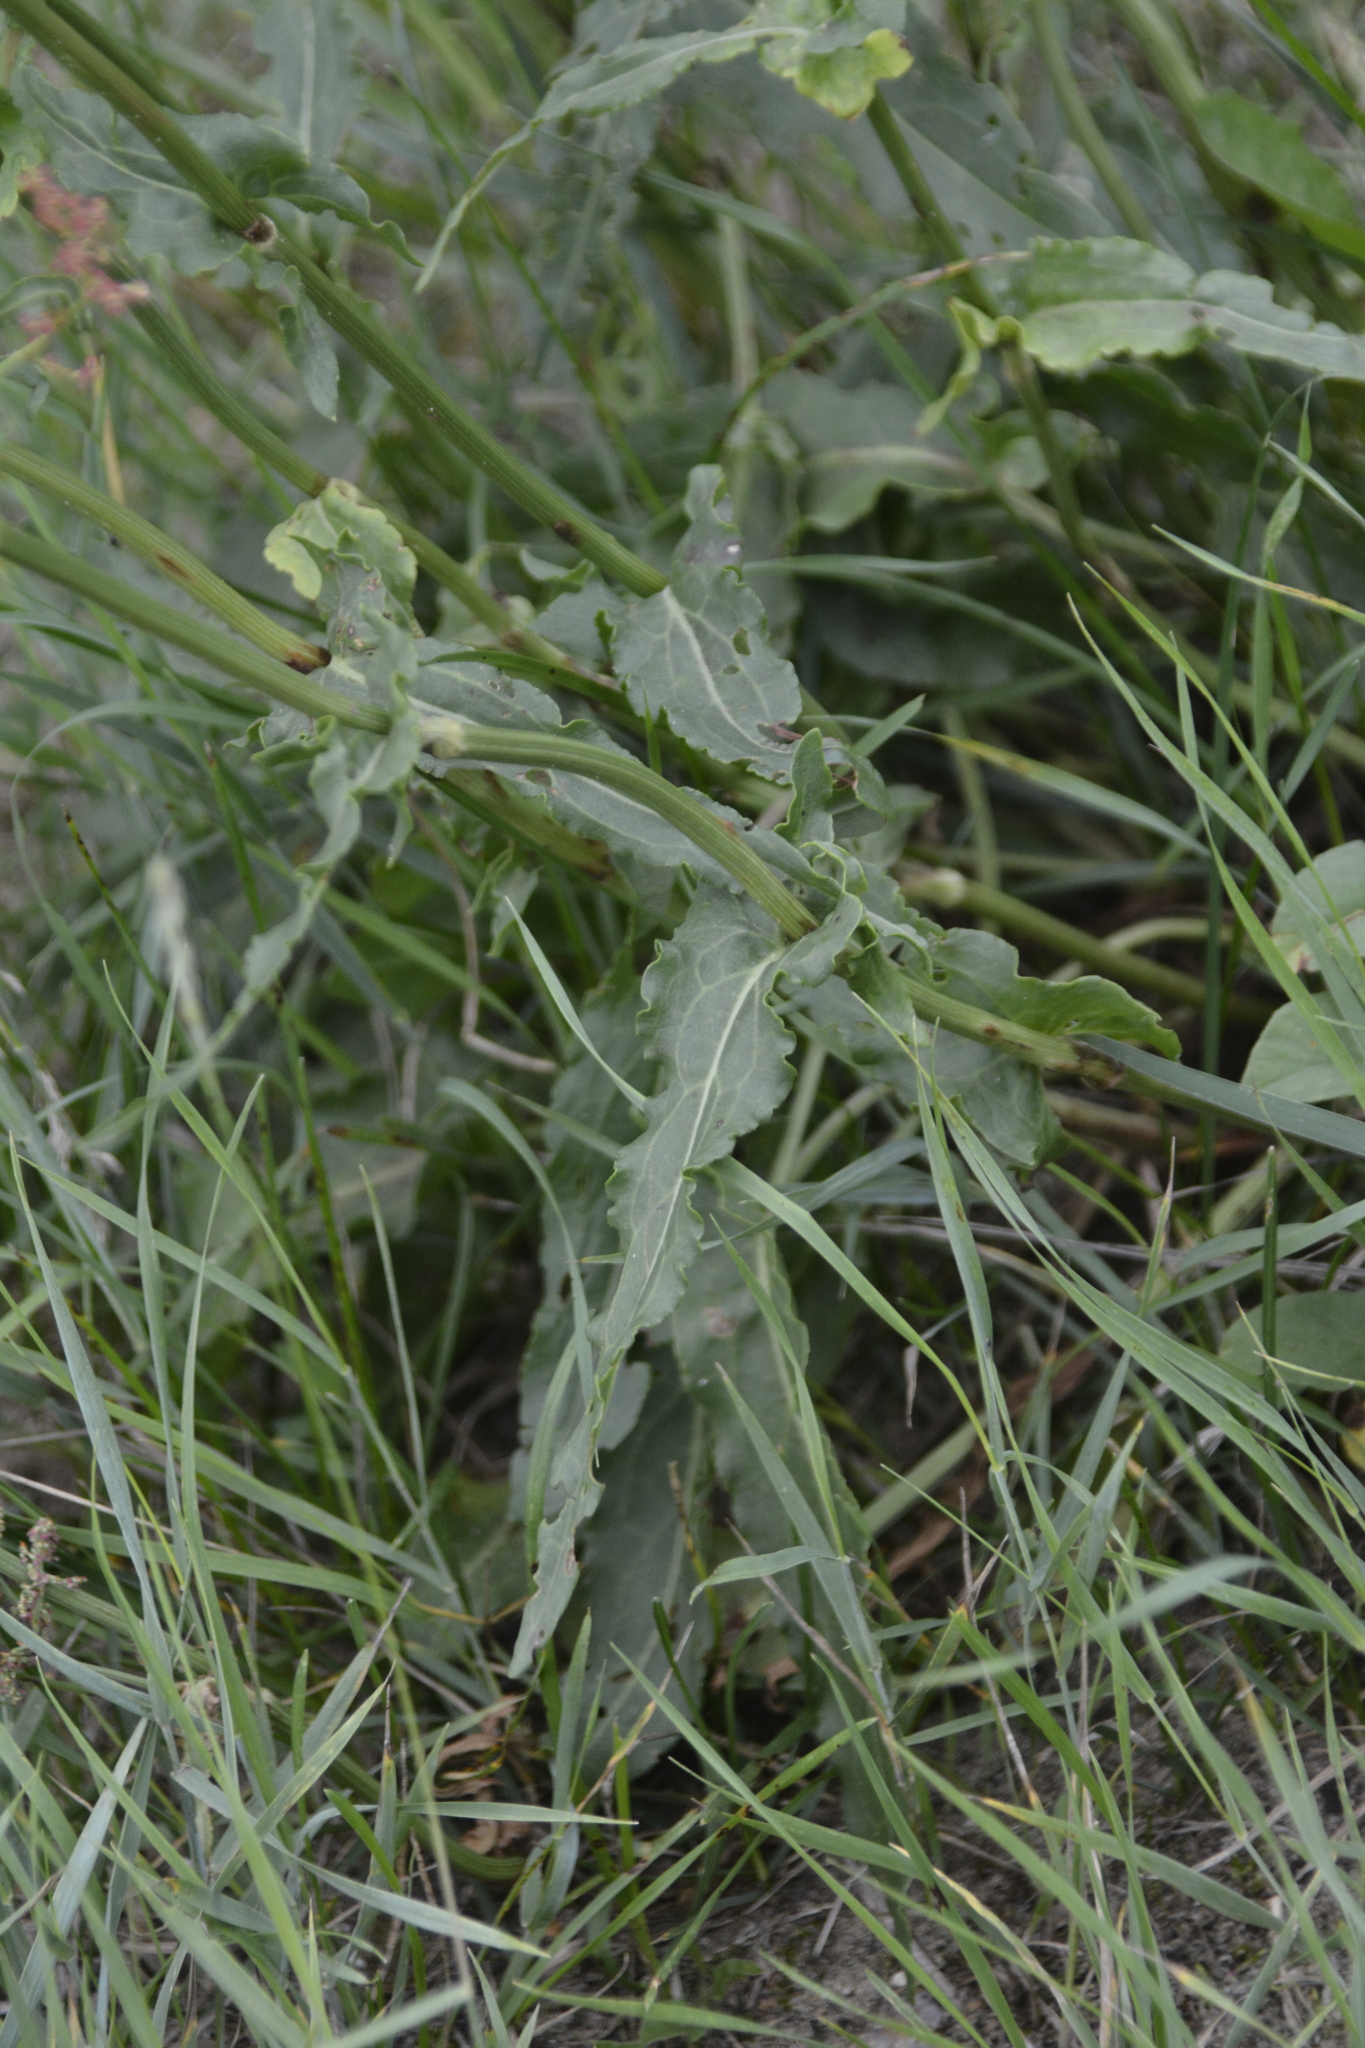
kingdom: Plantae
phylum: Tracheophyta
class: Magnoliopsida
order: Caryophyllales
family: Polygonaceae
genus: Rumex
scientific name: Rumex thyrsiflorus
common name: Garden sorrel
